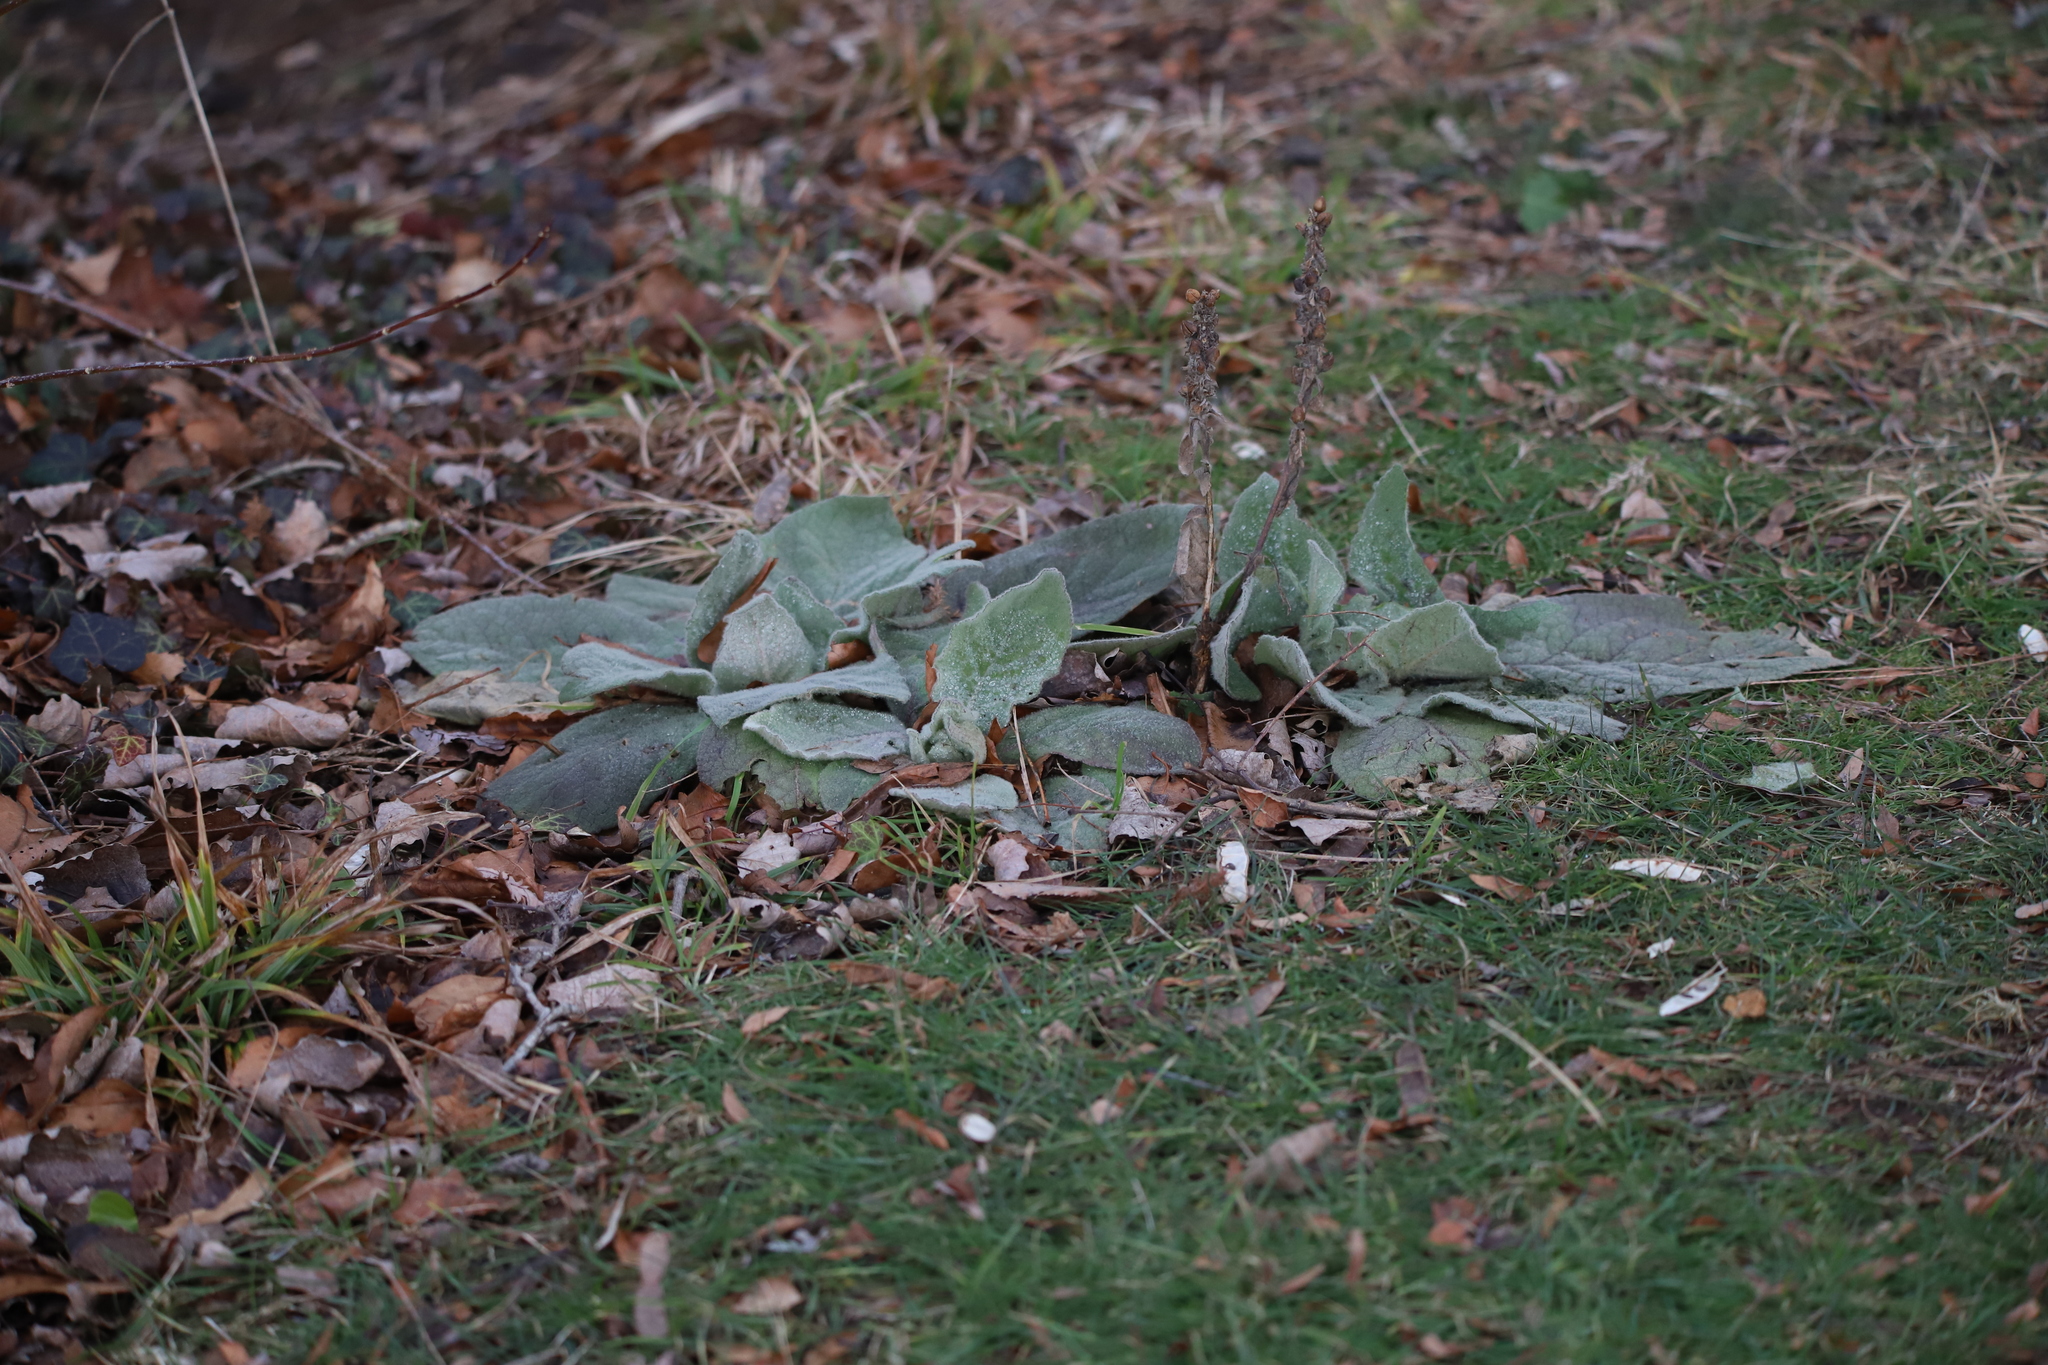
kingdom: Plantae
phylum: Tracheophyta
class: Magnoliopsida
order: Lamiales
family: Scrophulariaceae
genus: Verbascum
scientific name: Verbascum thapsus
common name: Common mullein
